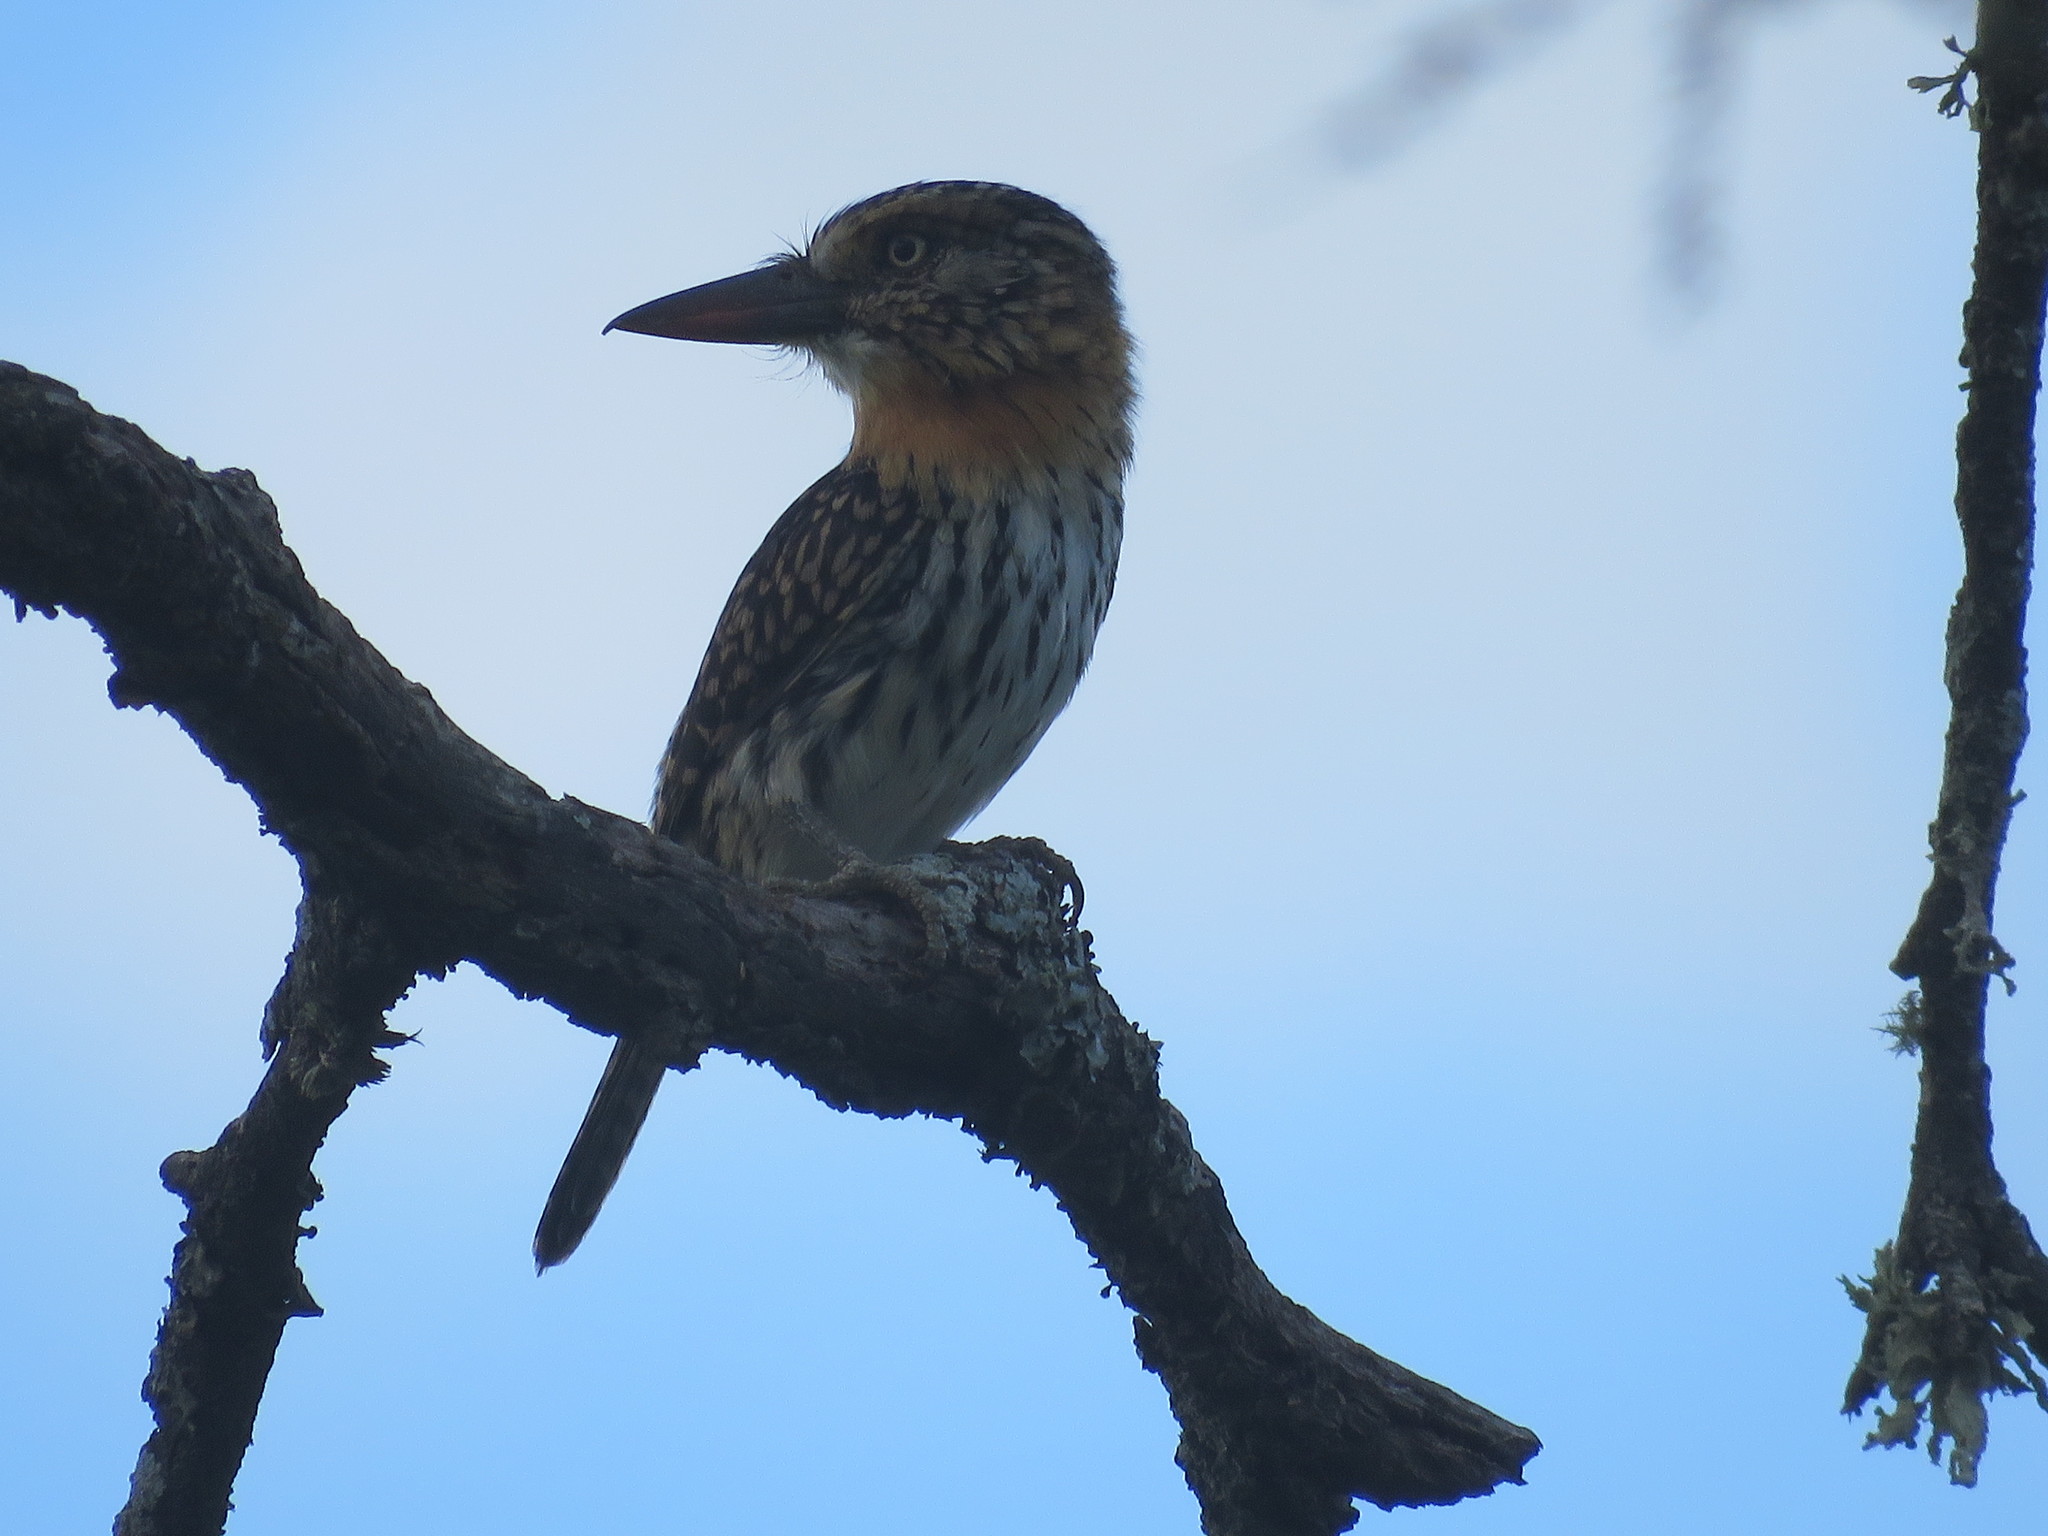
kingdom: Animalia
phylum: Chordata
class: Aves
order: Piciformes
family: Bucconidae
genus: Nystalus
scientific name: Nystalus maculatus
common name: Caatinga puffbird
